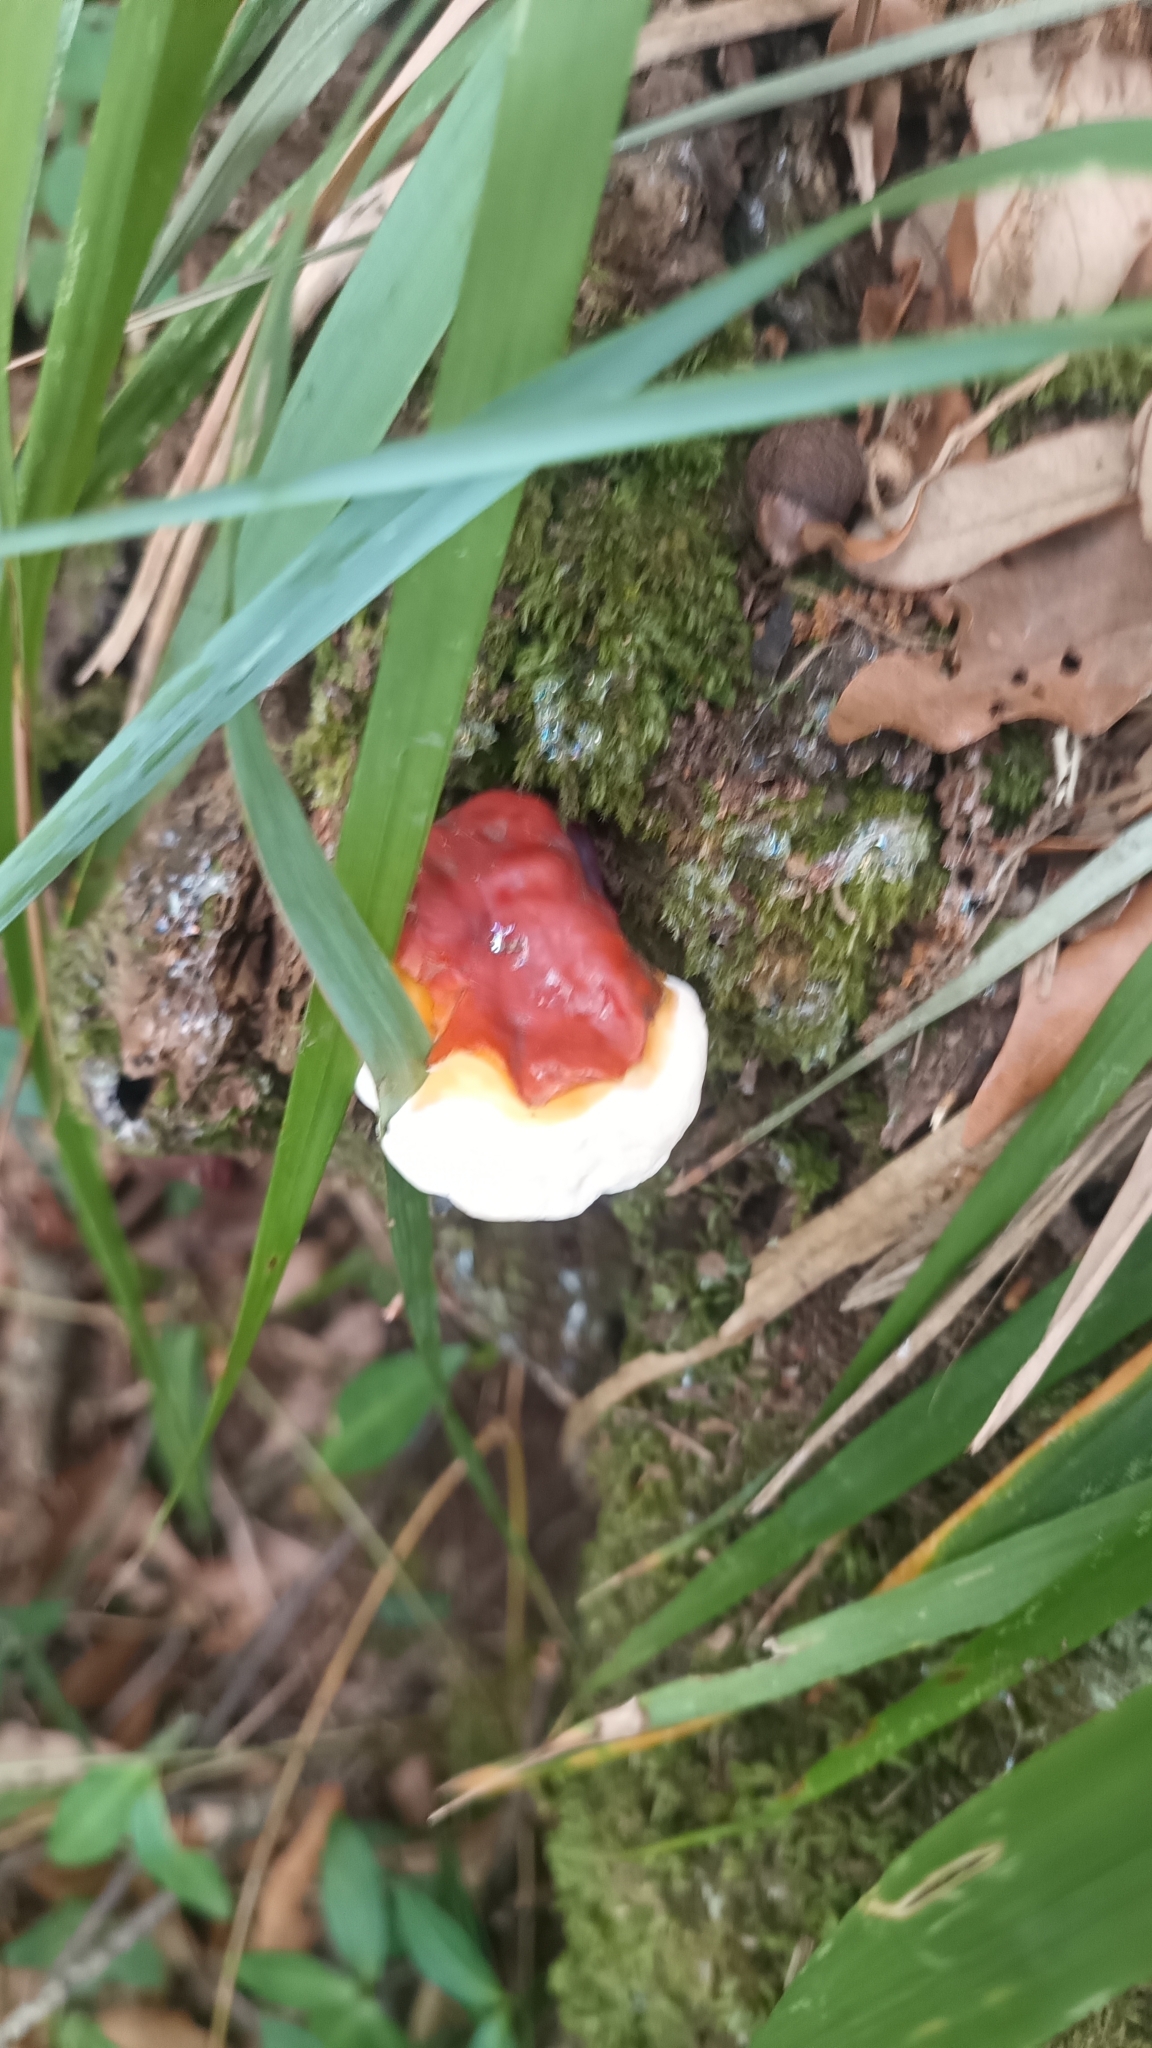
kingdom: Fungi
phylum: Basidiomycota
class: Agaricomycetes
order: Polyporales
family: Polyporaceae
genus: Ganoderma
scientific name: Ganoderma lucidum
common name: Lacquered bracket
